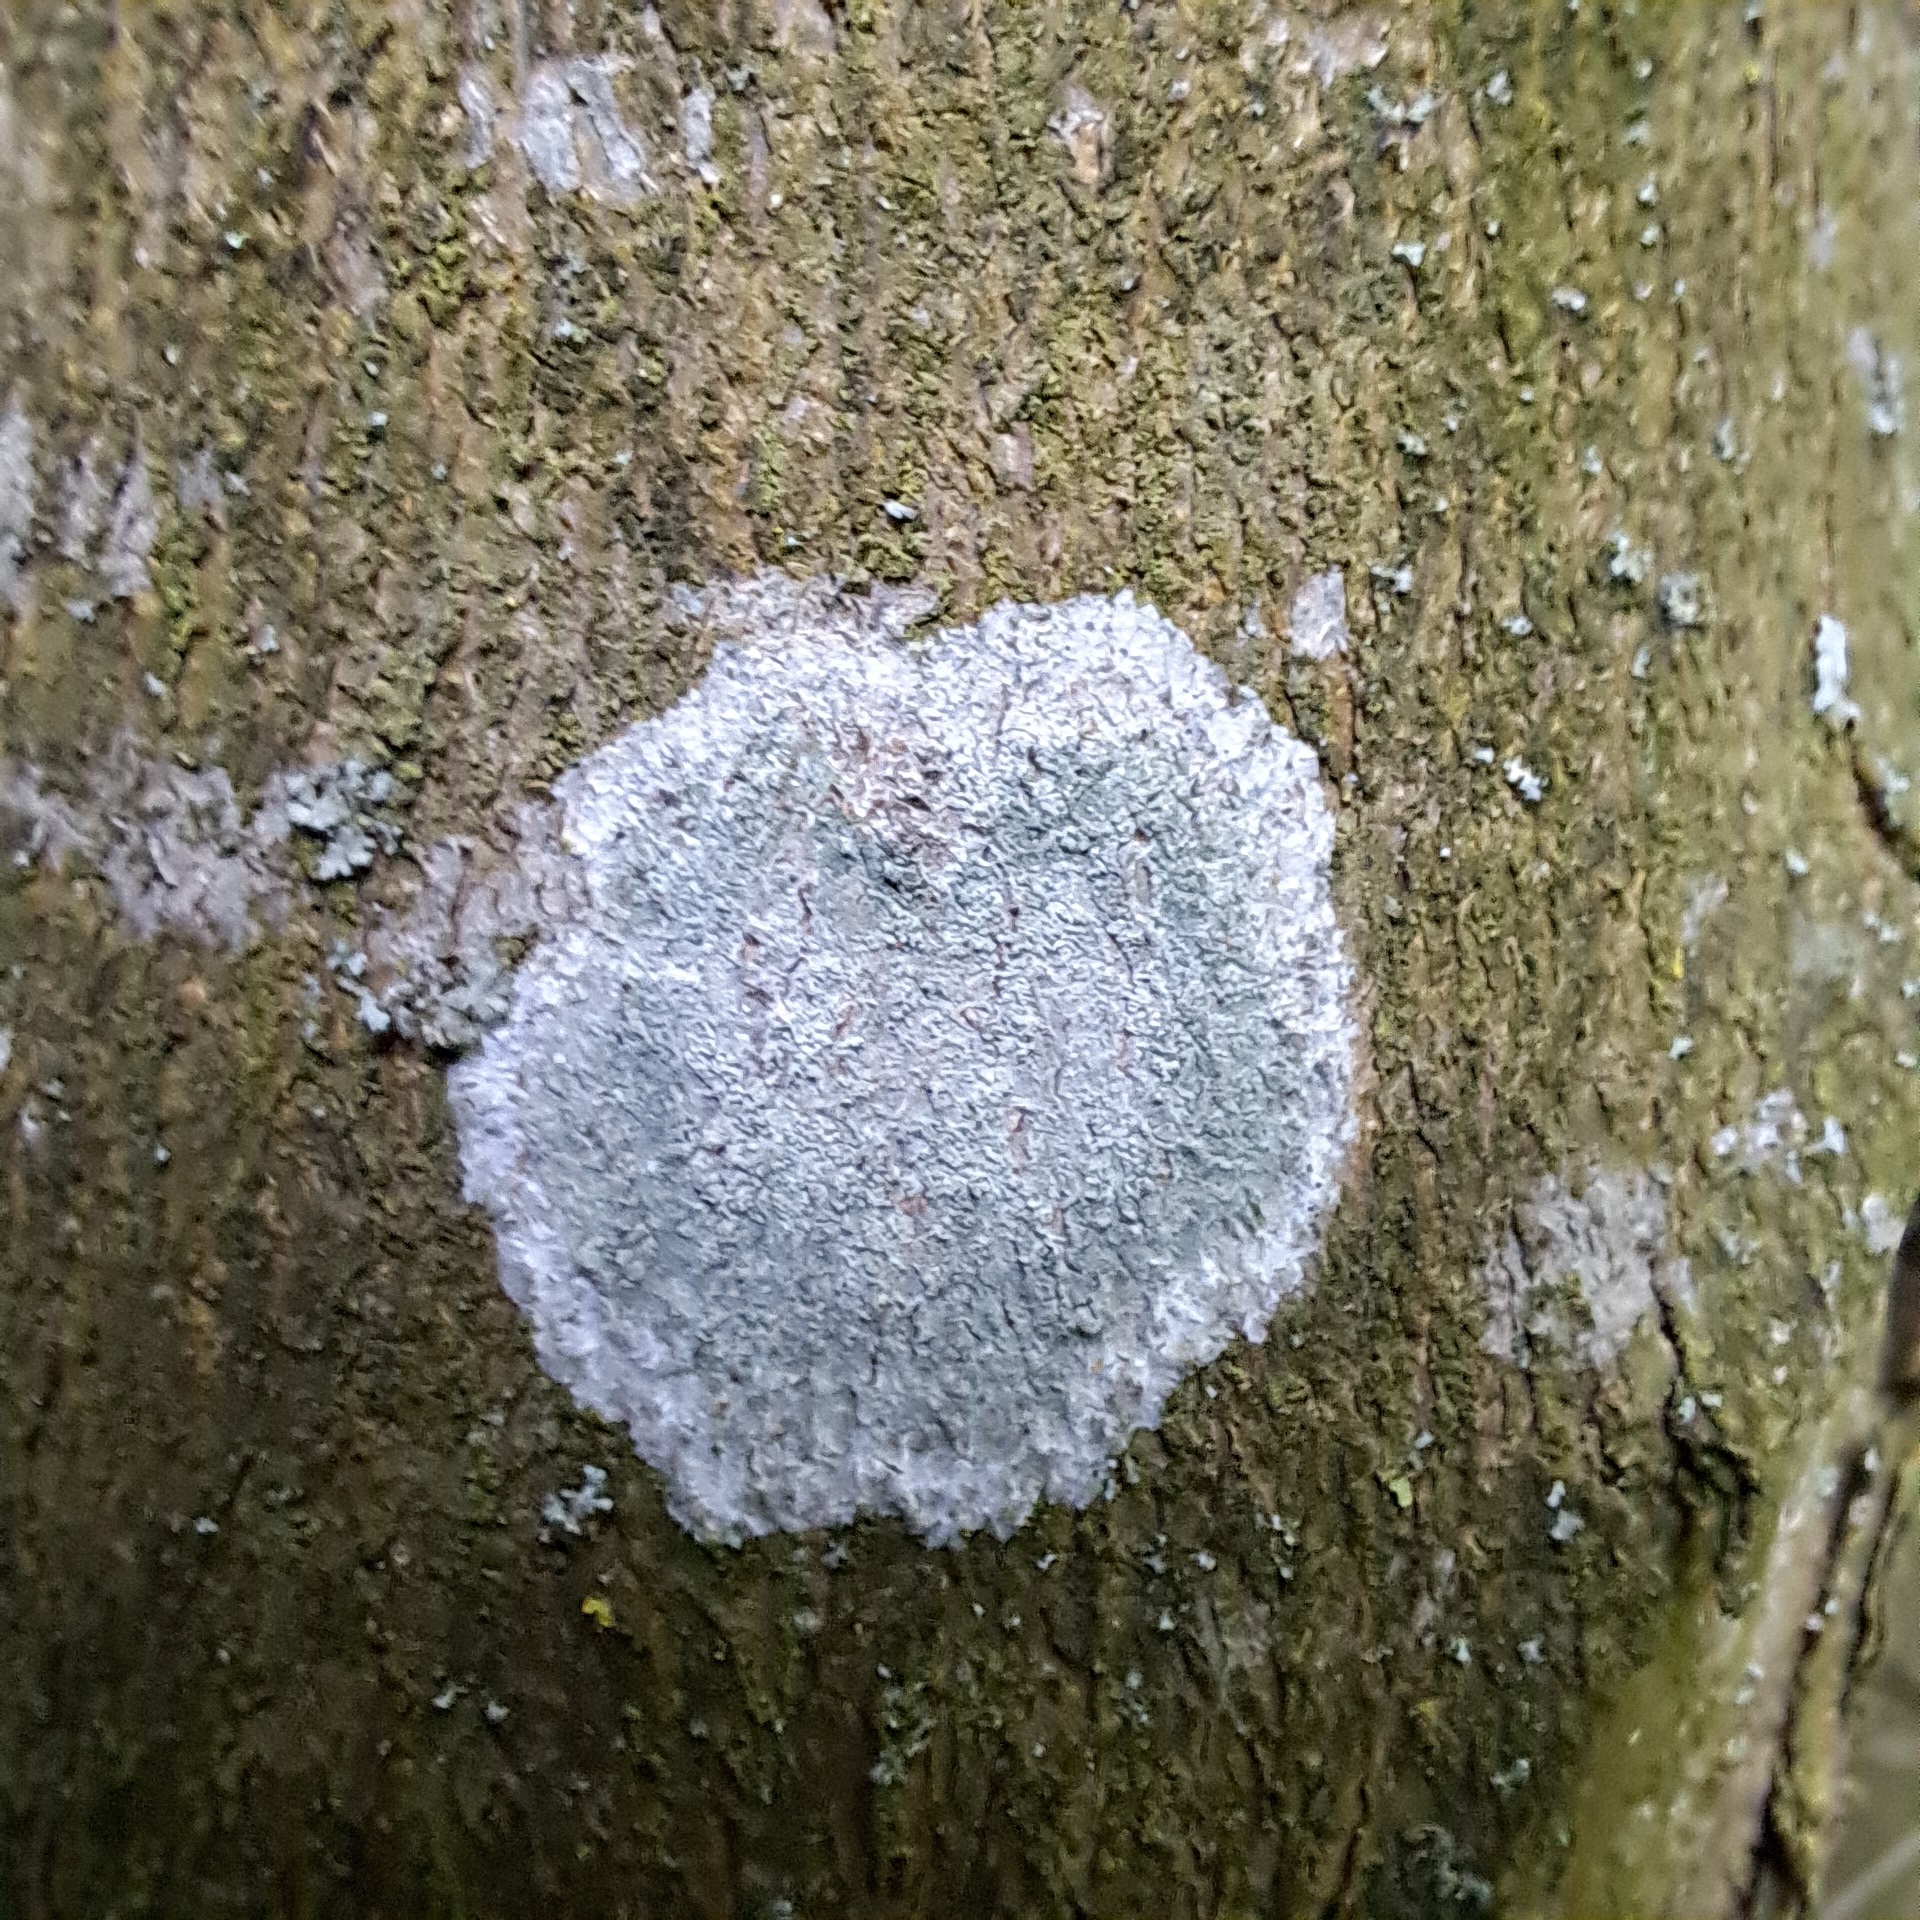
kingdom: Fungi
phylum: Ascomycota
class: Lecanoromycetes
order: Ostropales
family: Phlyctidaceae
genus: Phlyctis
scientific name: Phlyctis argena
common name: Whitewash lichen
